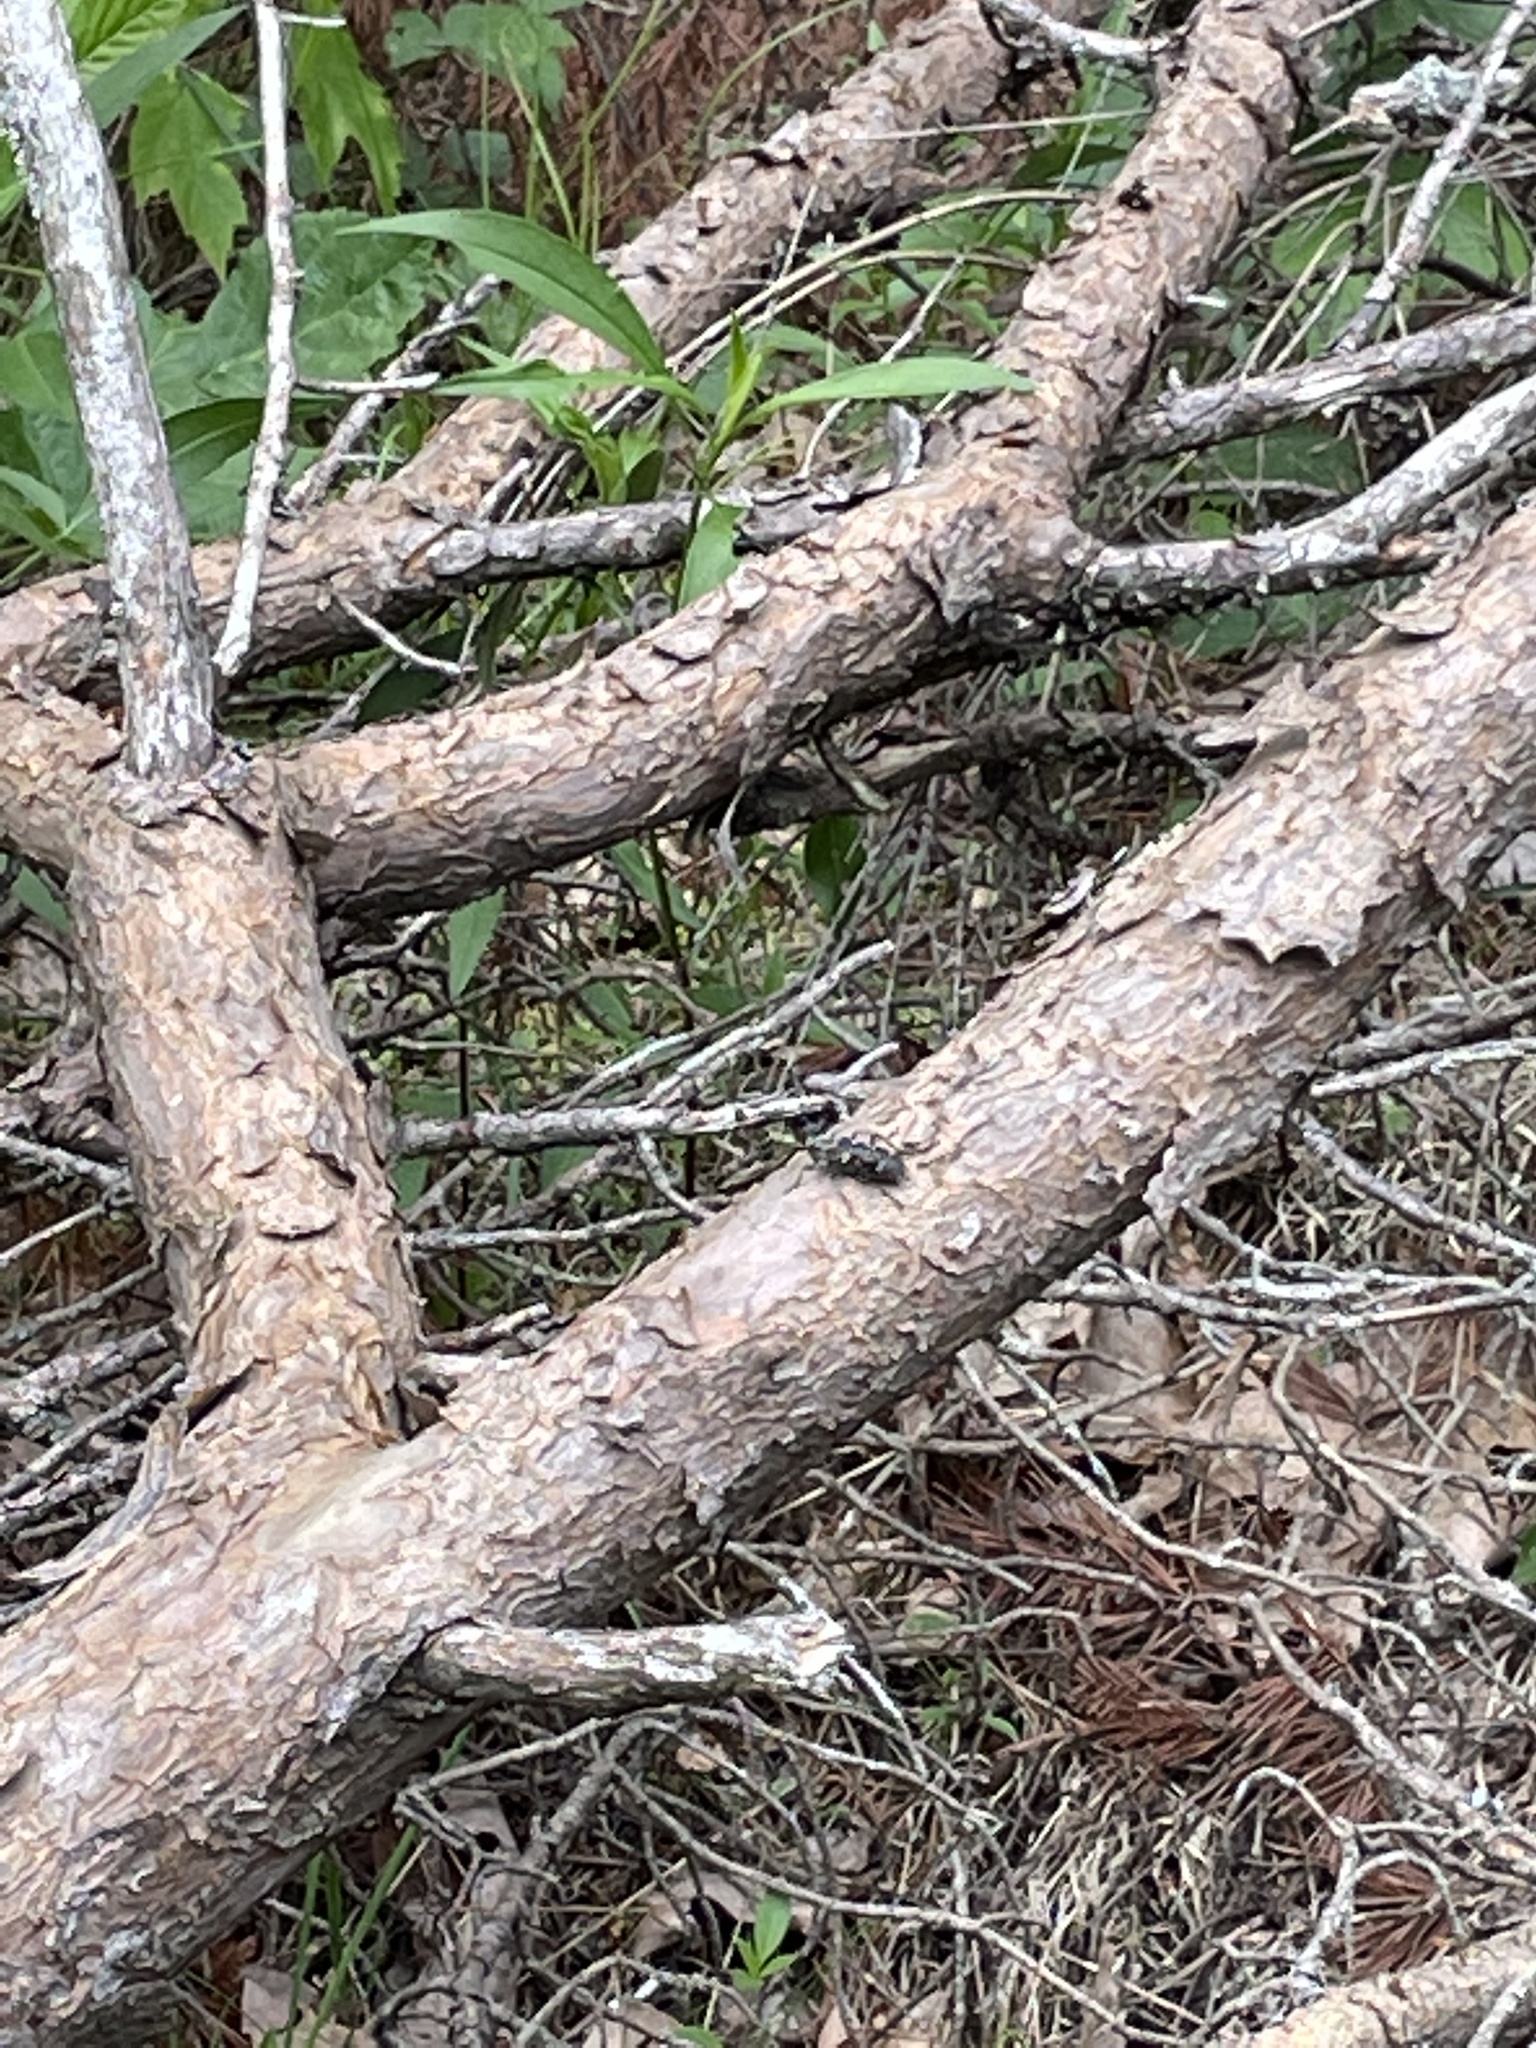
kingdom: Animalia
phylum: Arthropoda
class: Insecta
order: Coleoptera
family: Cerambycidae
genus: Monochamus
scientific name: Monochamus scutellatus
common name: White-spotted sawyer beetle
